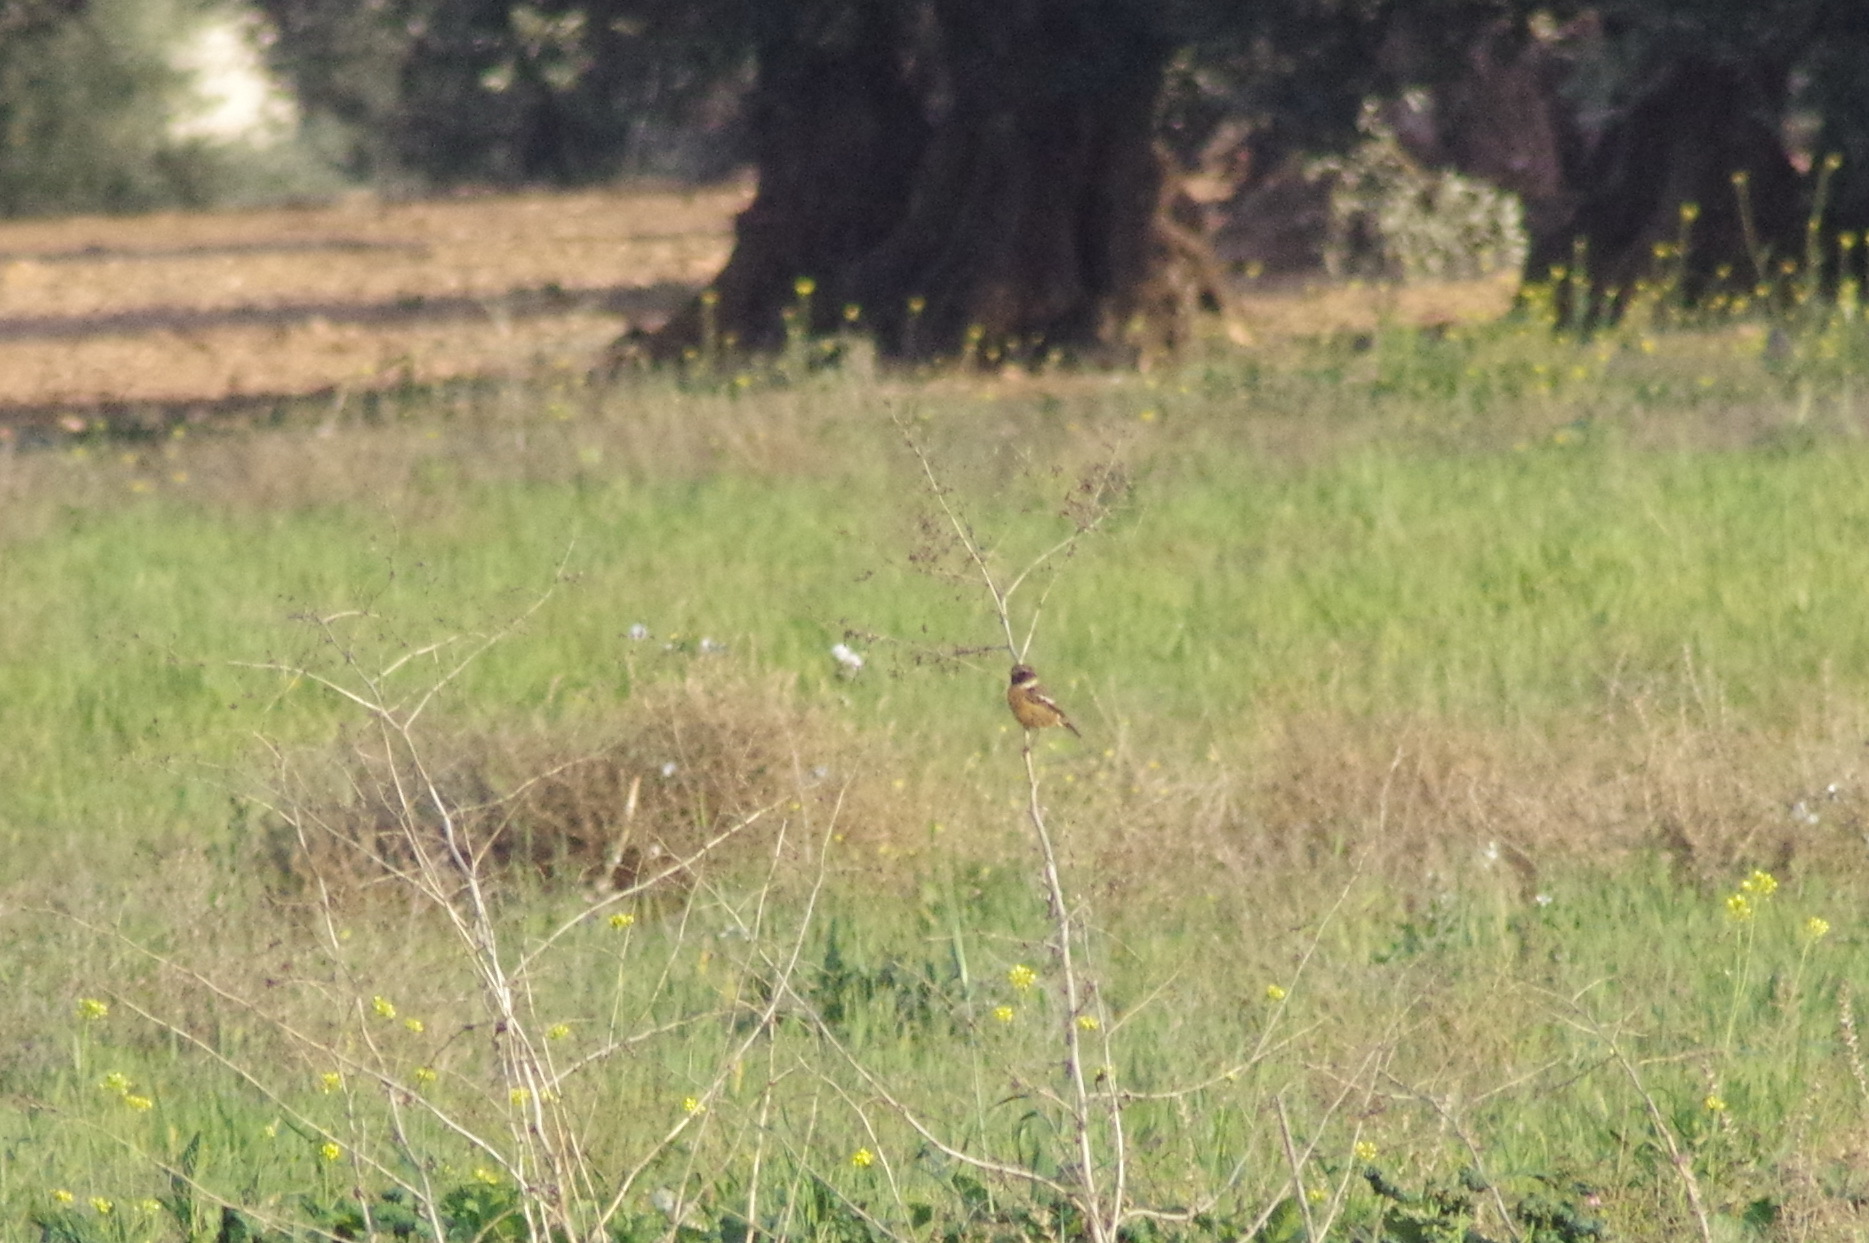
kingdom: Animalia
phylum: Chordata
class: Aves
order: Passeriformes
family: Muscicapidae
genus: Saxicola
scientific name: Saxicola rubicola
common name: European stonechat
